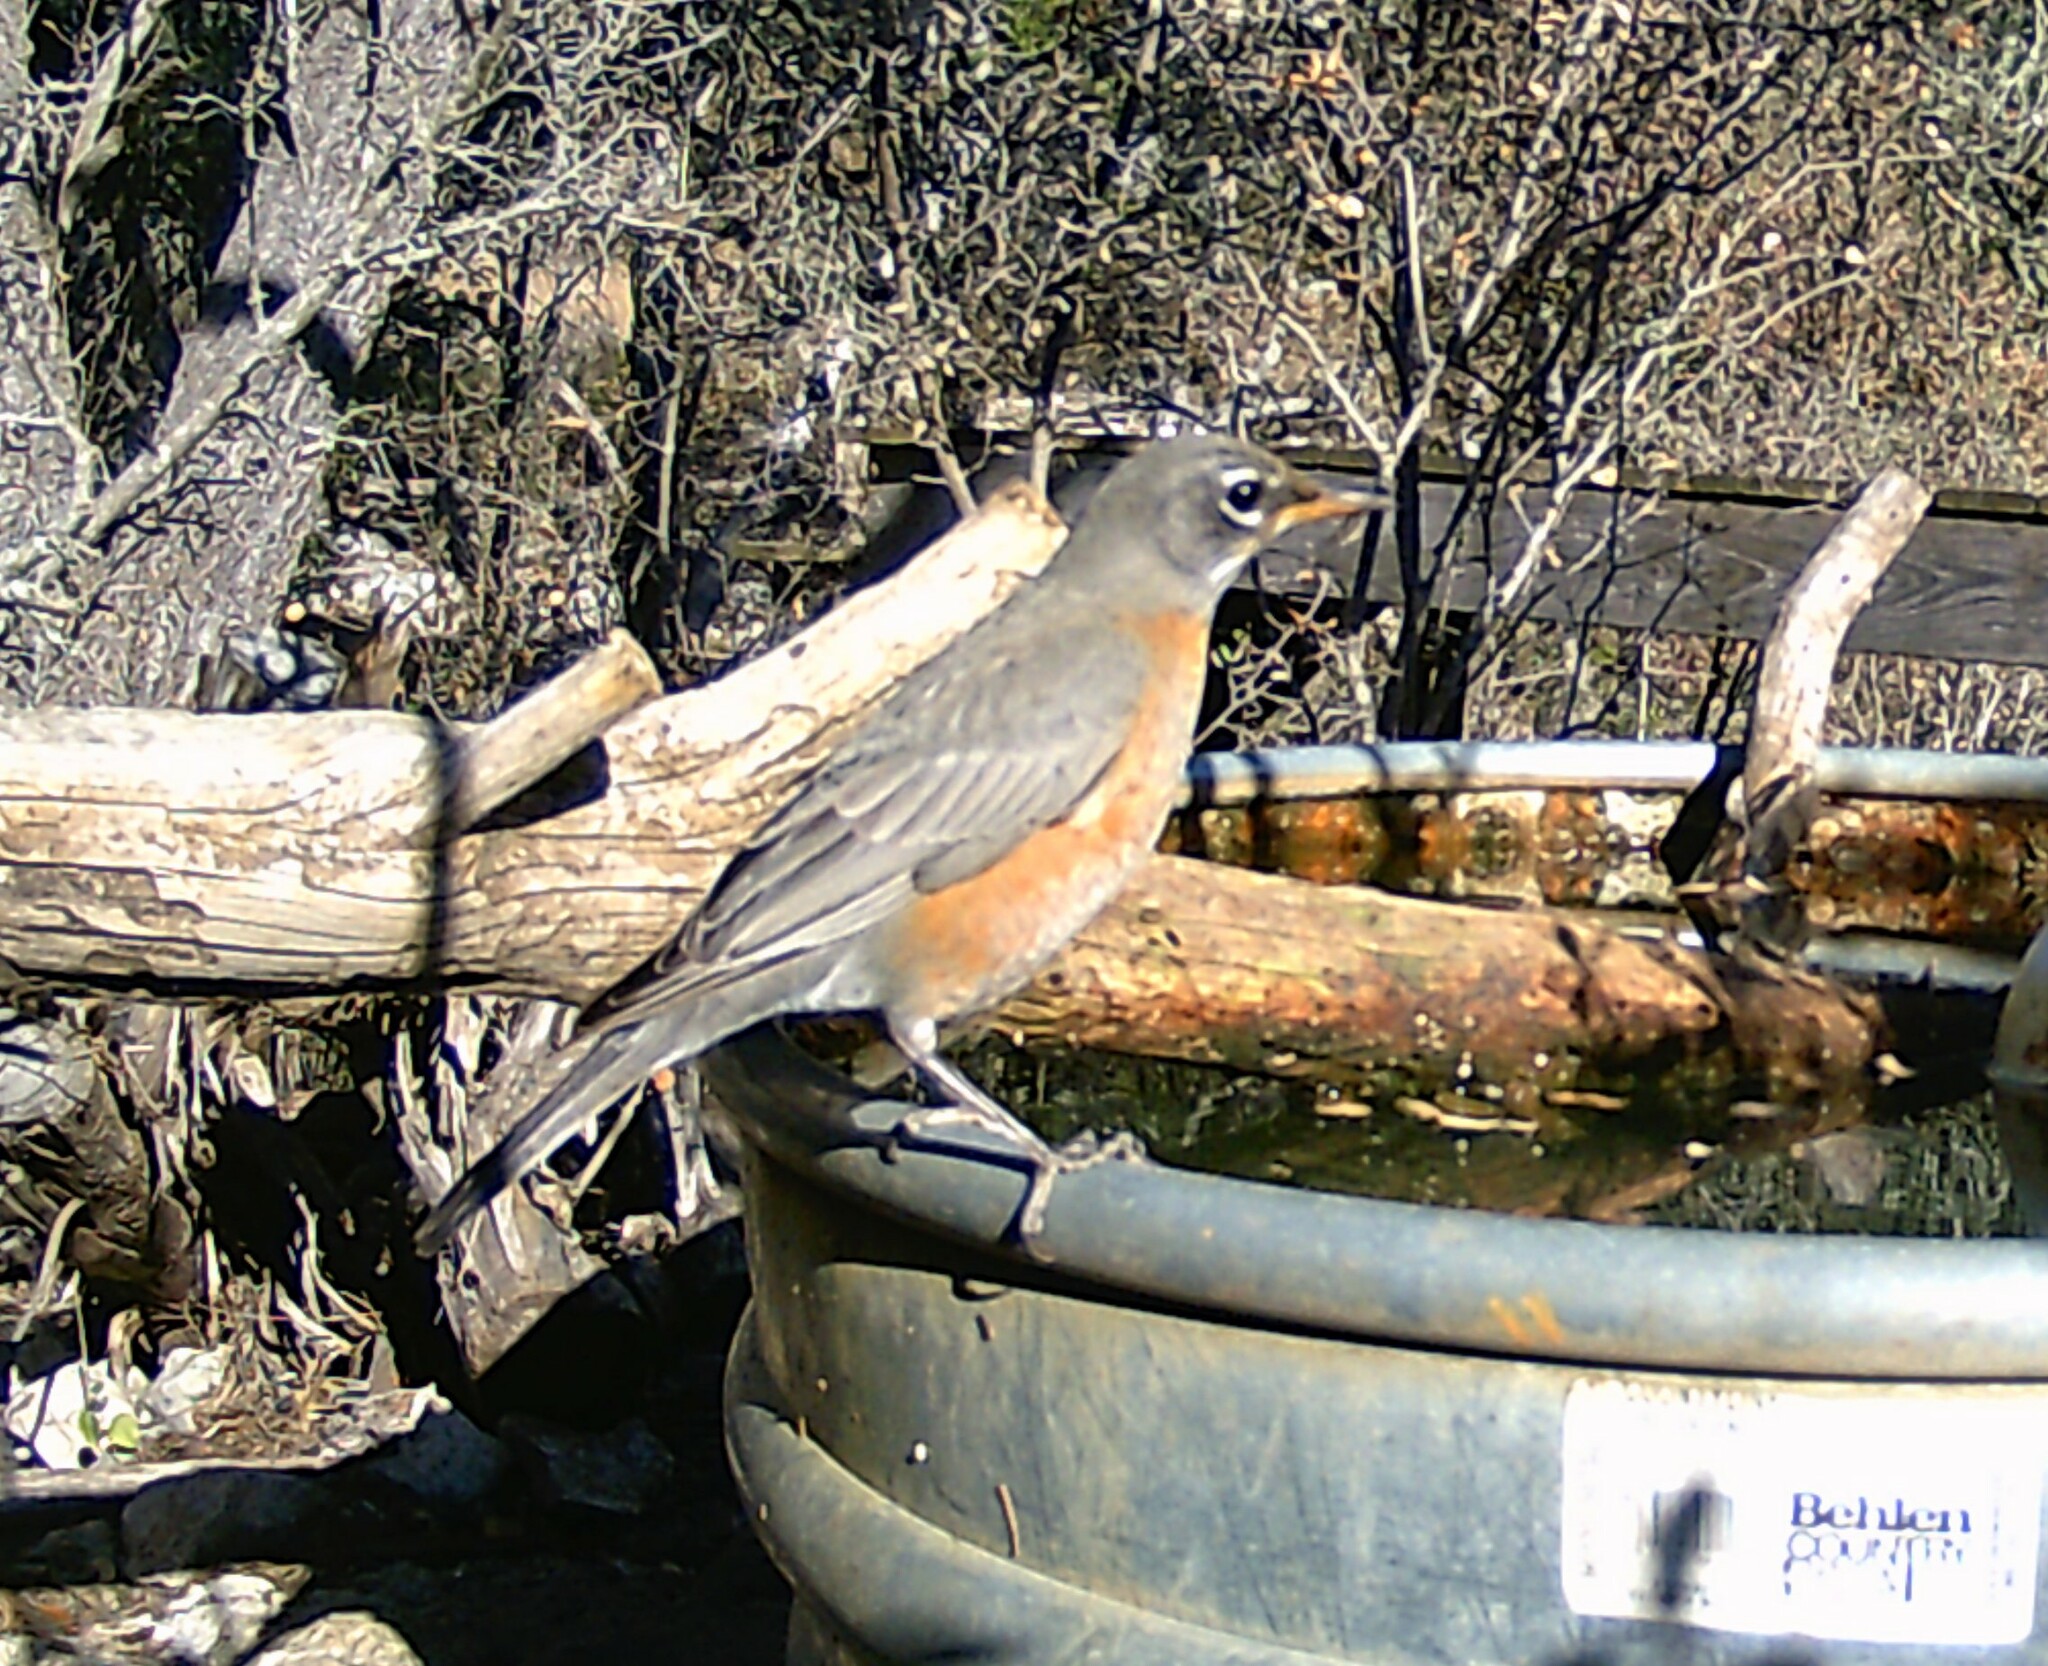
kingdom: Animalia
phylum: Chordata
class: Aves
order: Passeriformes
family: Turdidae
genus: Turdus
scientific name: Turdus migratorius
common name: American robin
